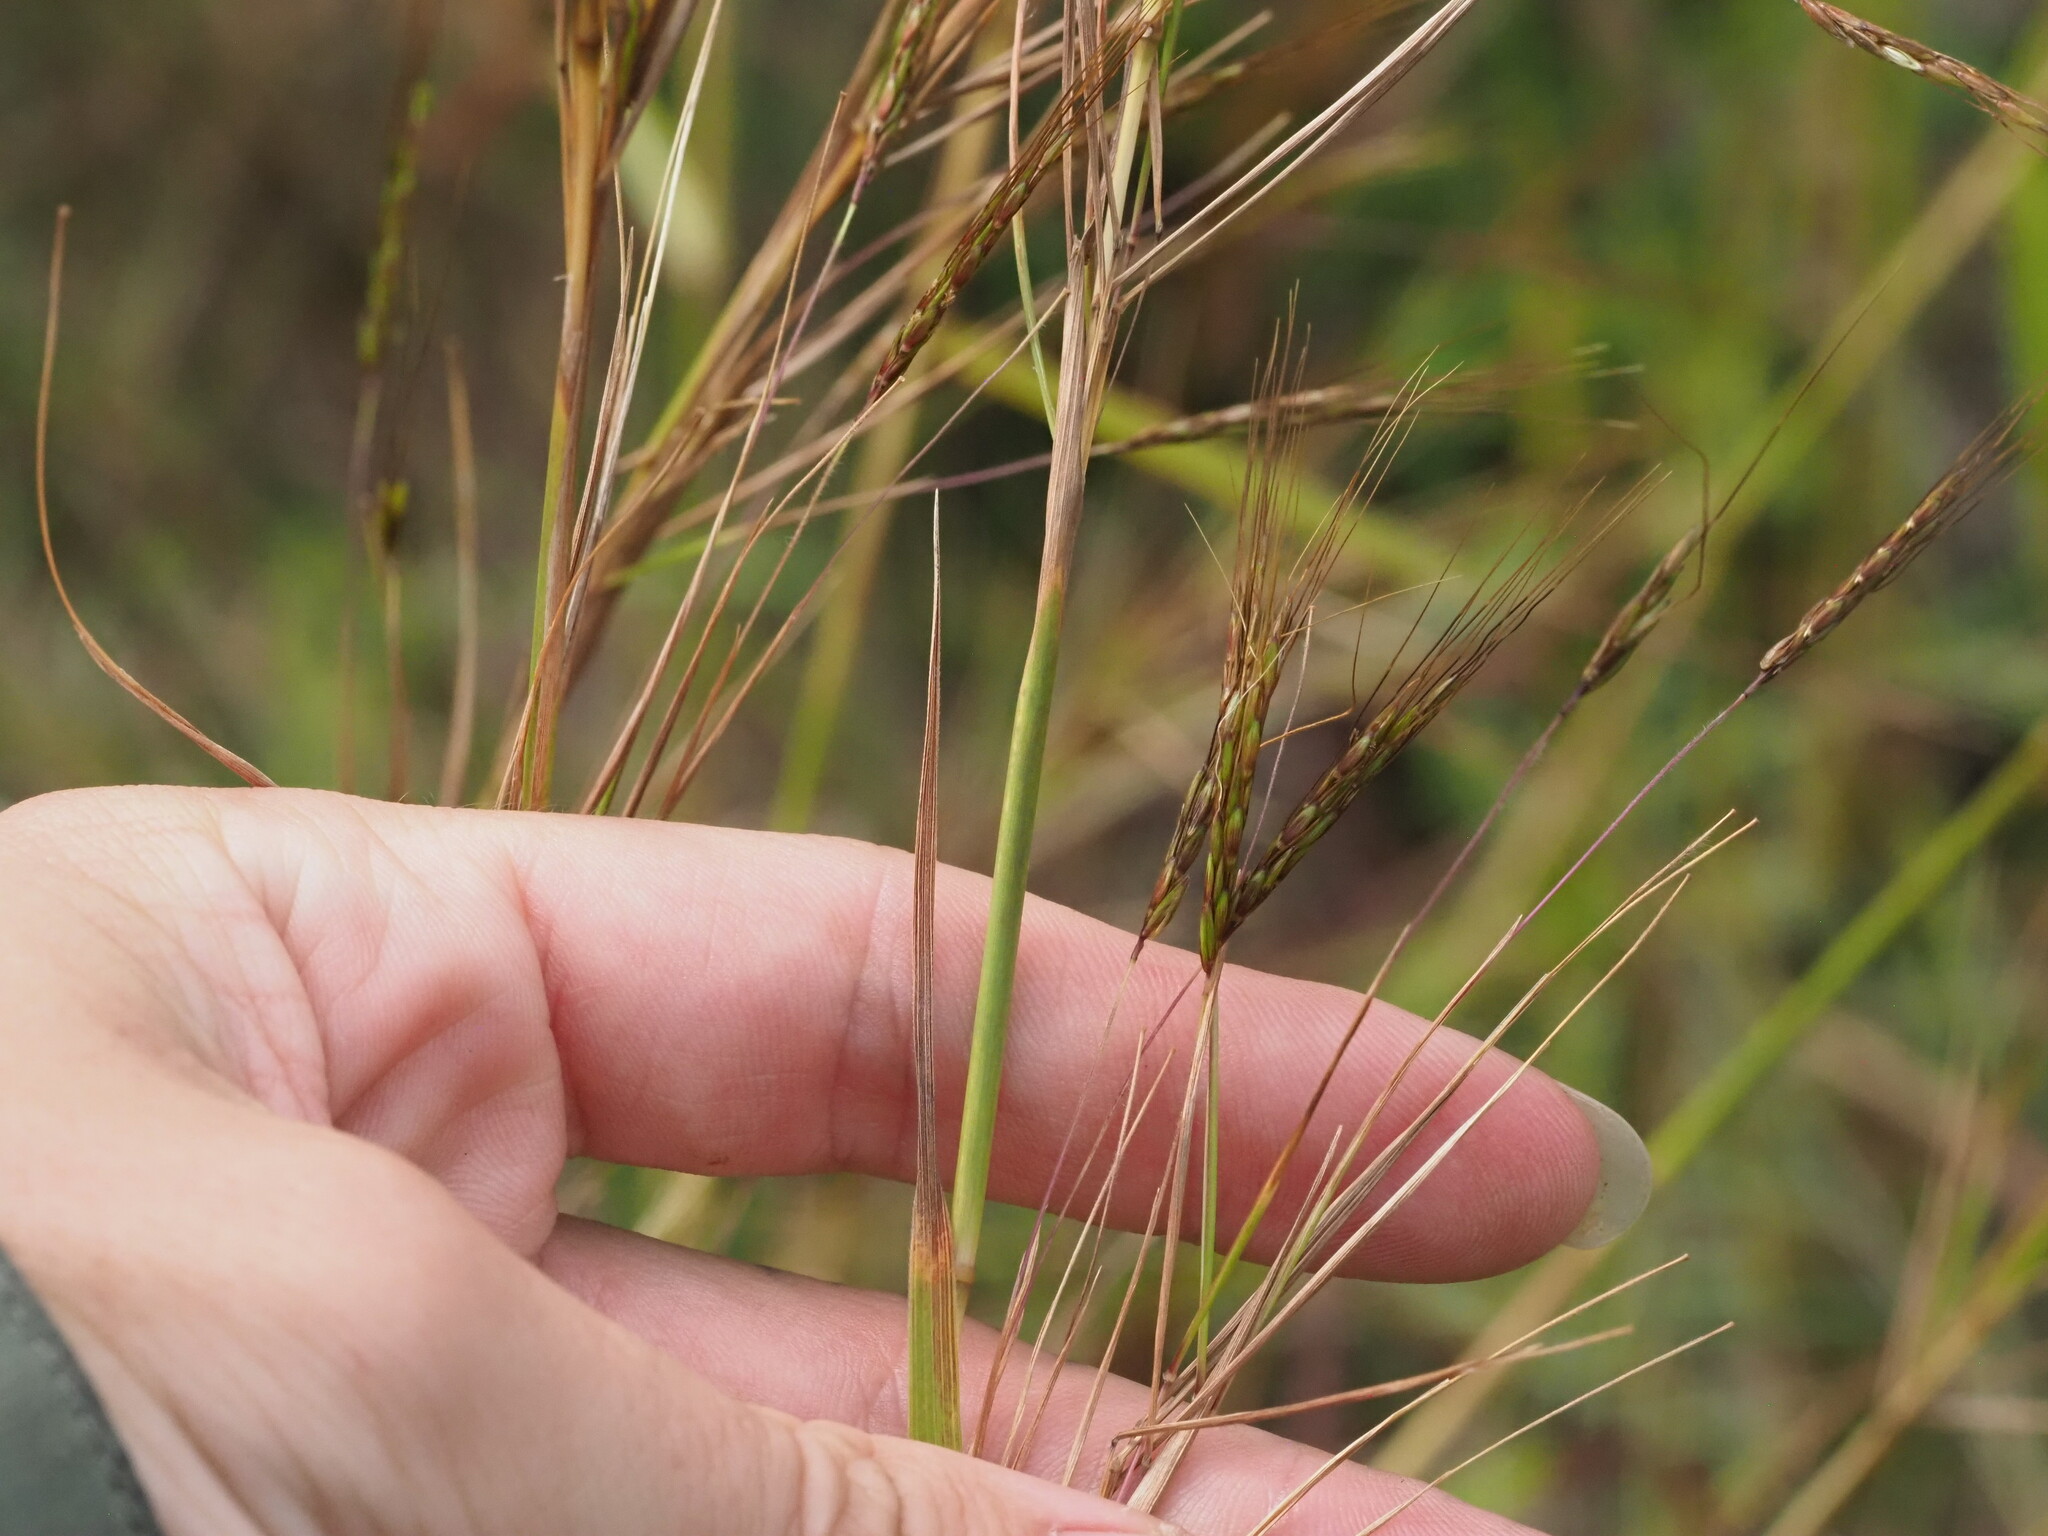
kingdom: Plantae
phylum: Tracheophyta
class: Liliopsida
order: Poales
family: Poaceae
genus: Hyparrhenia
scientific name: Hyparrhenia rufa
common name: Jaraguagrass
